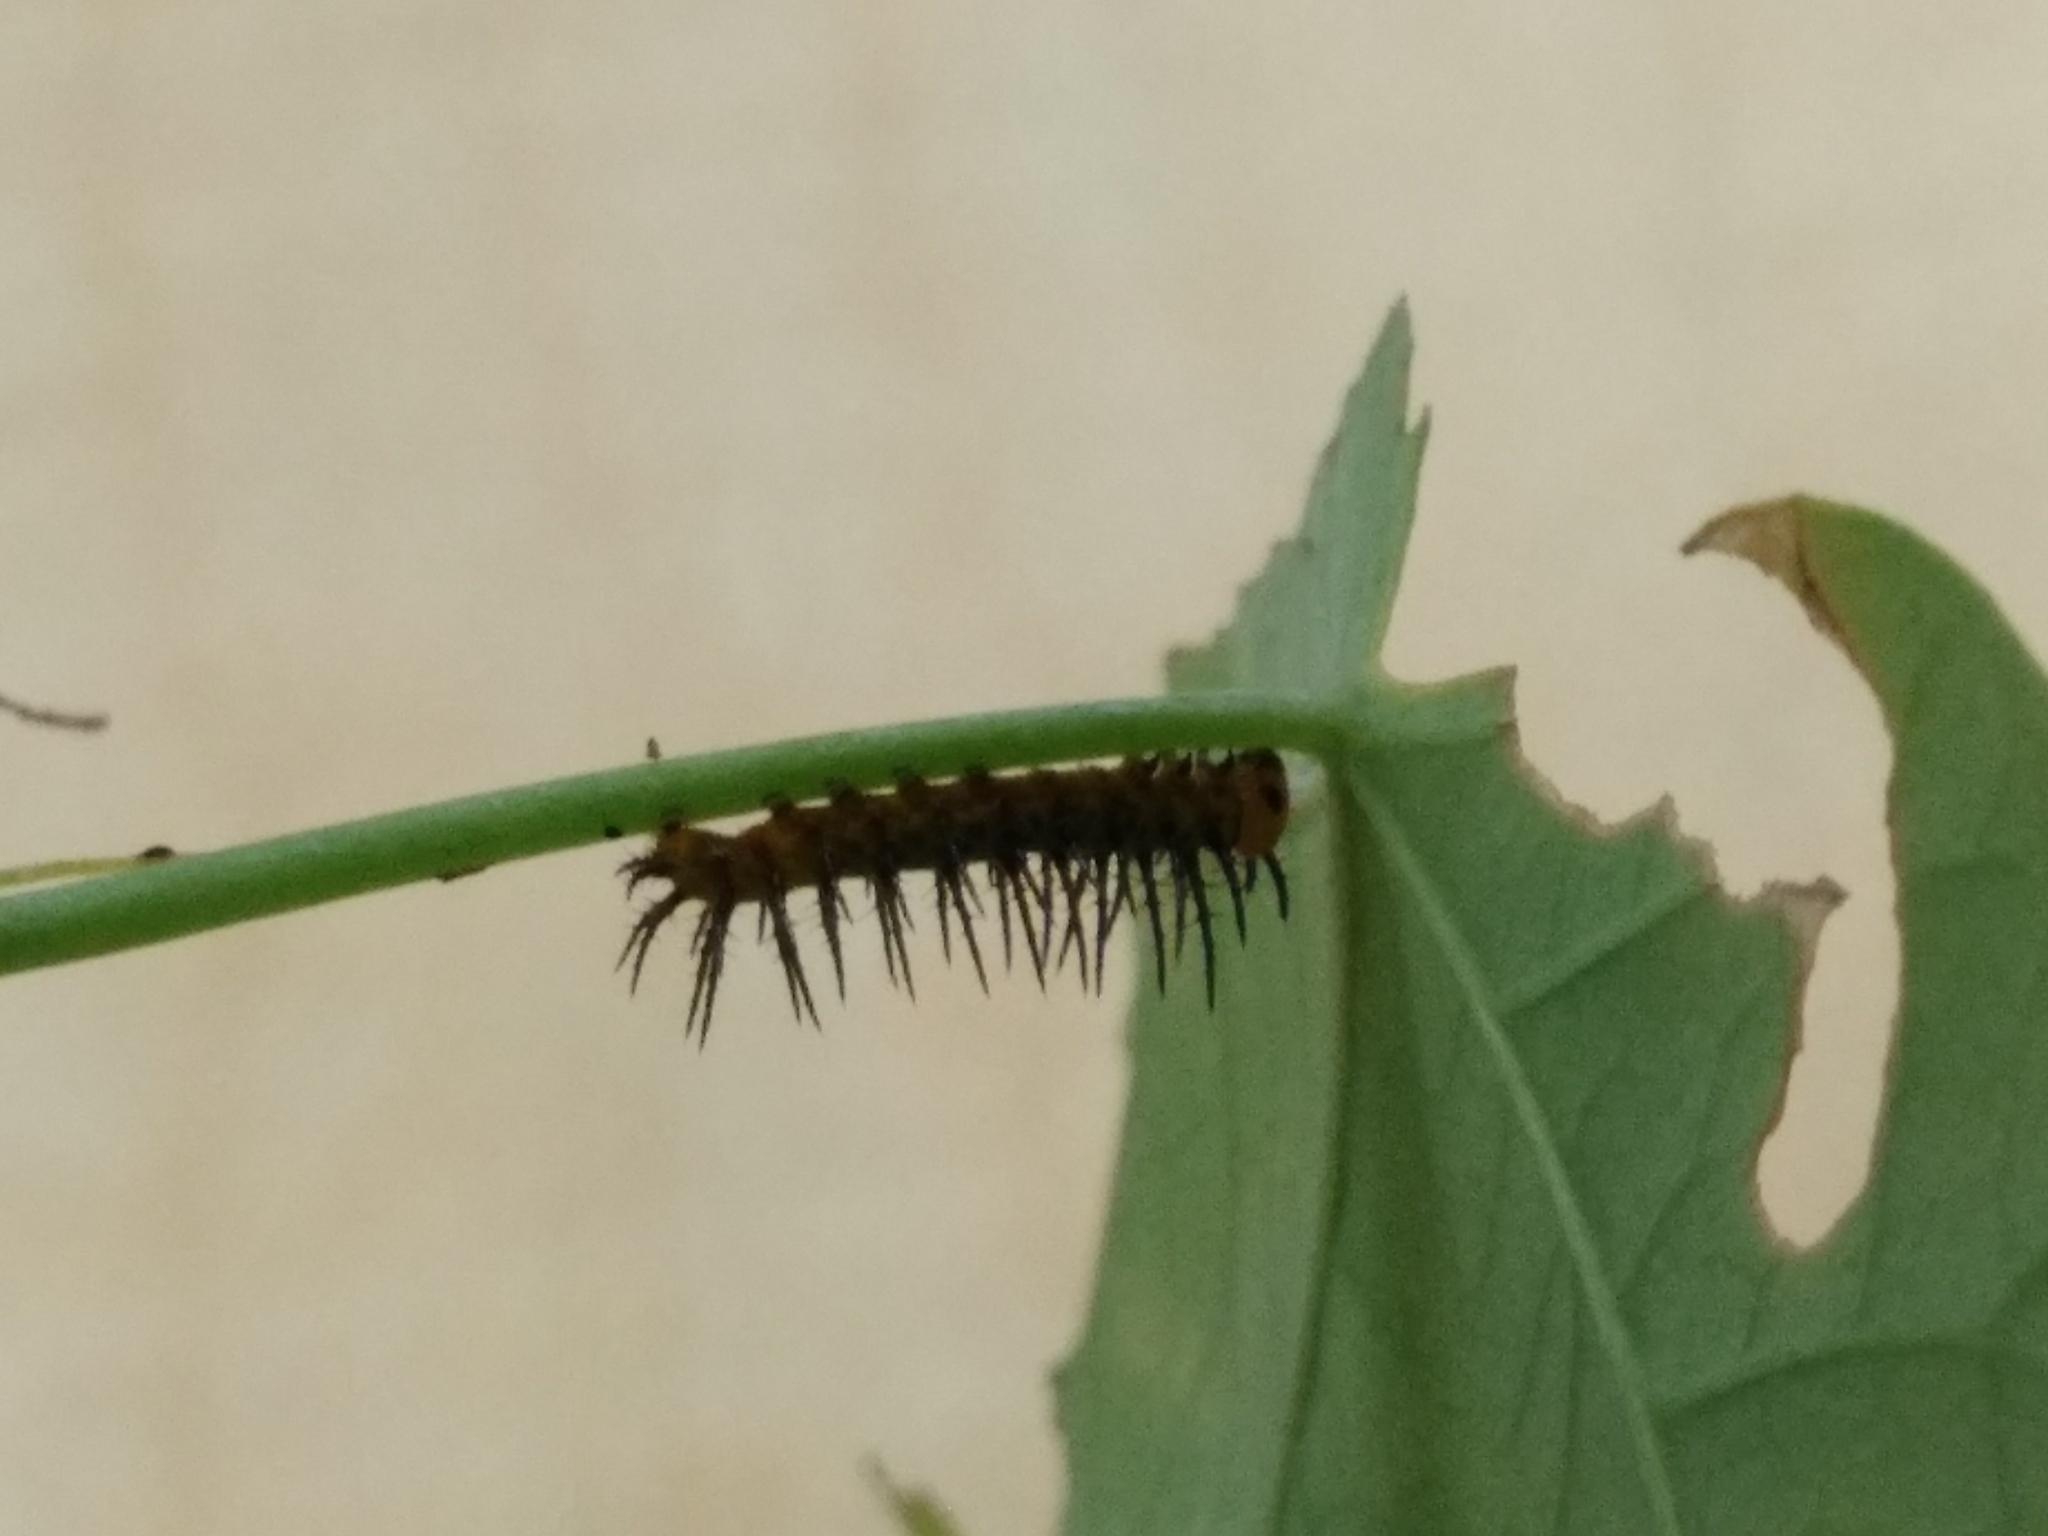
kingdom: Animalia
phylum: Arthropoda
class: Insecta
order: Lepidoptera
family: Nymphalidae
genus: Heliconius
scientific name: Heliconius charithonia
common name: Zebra long wing
